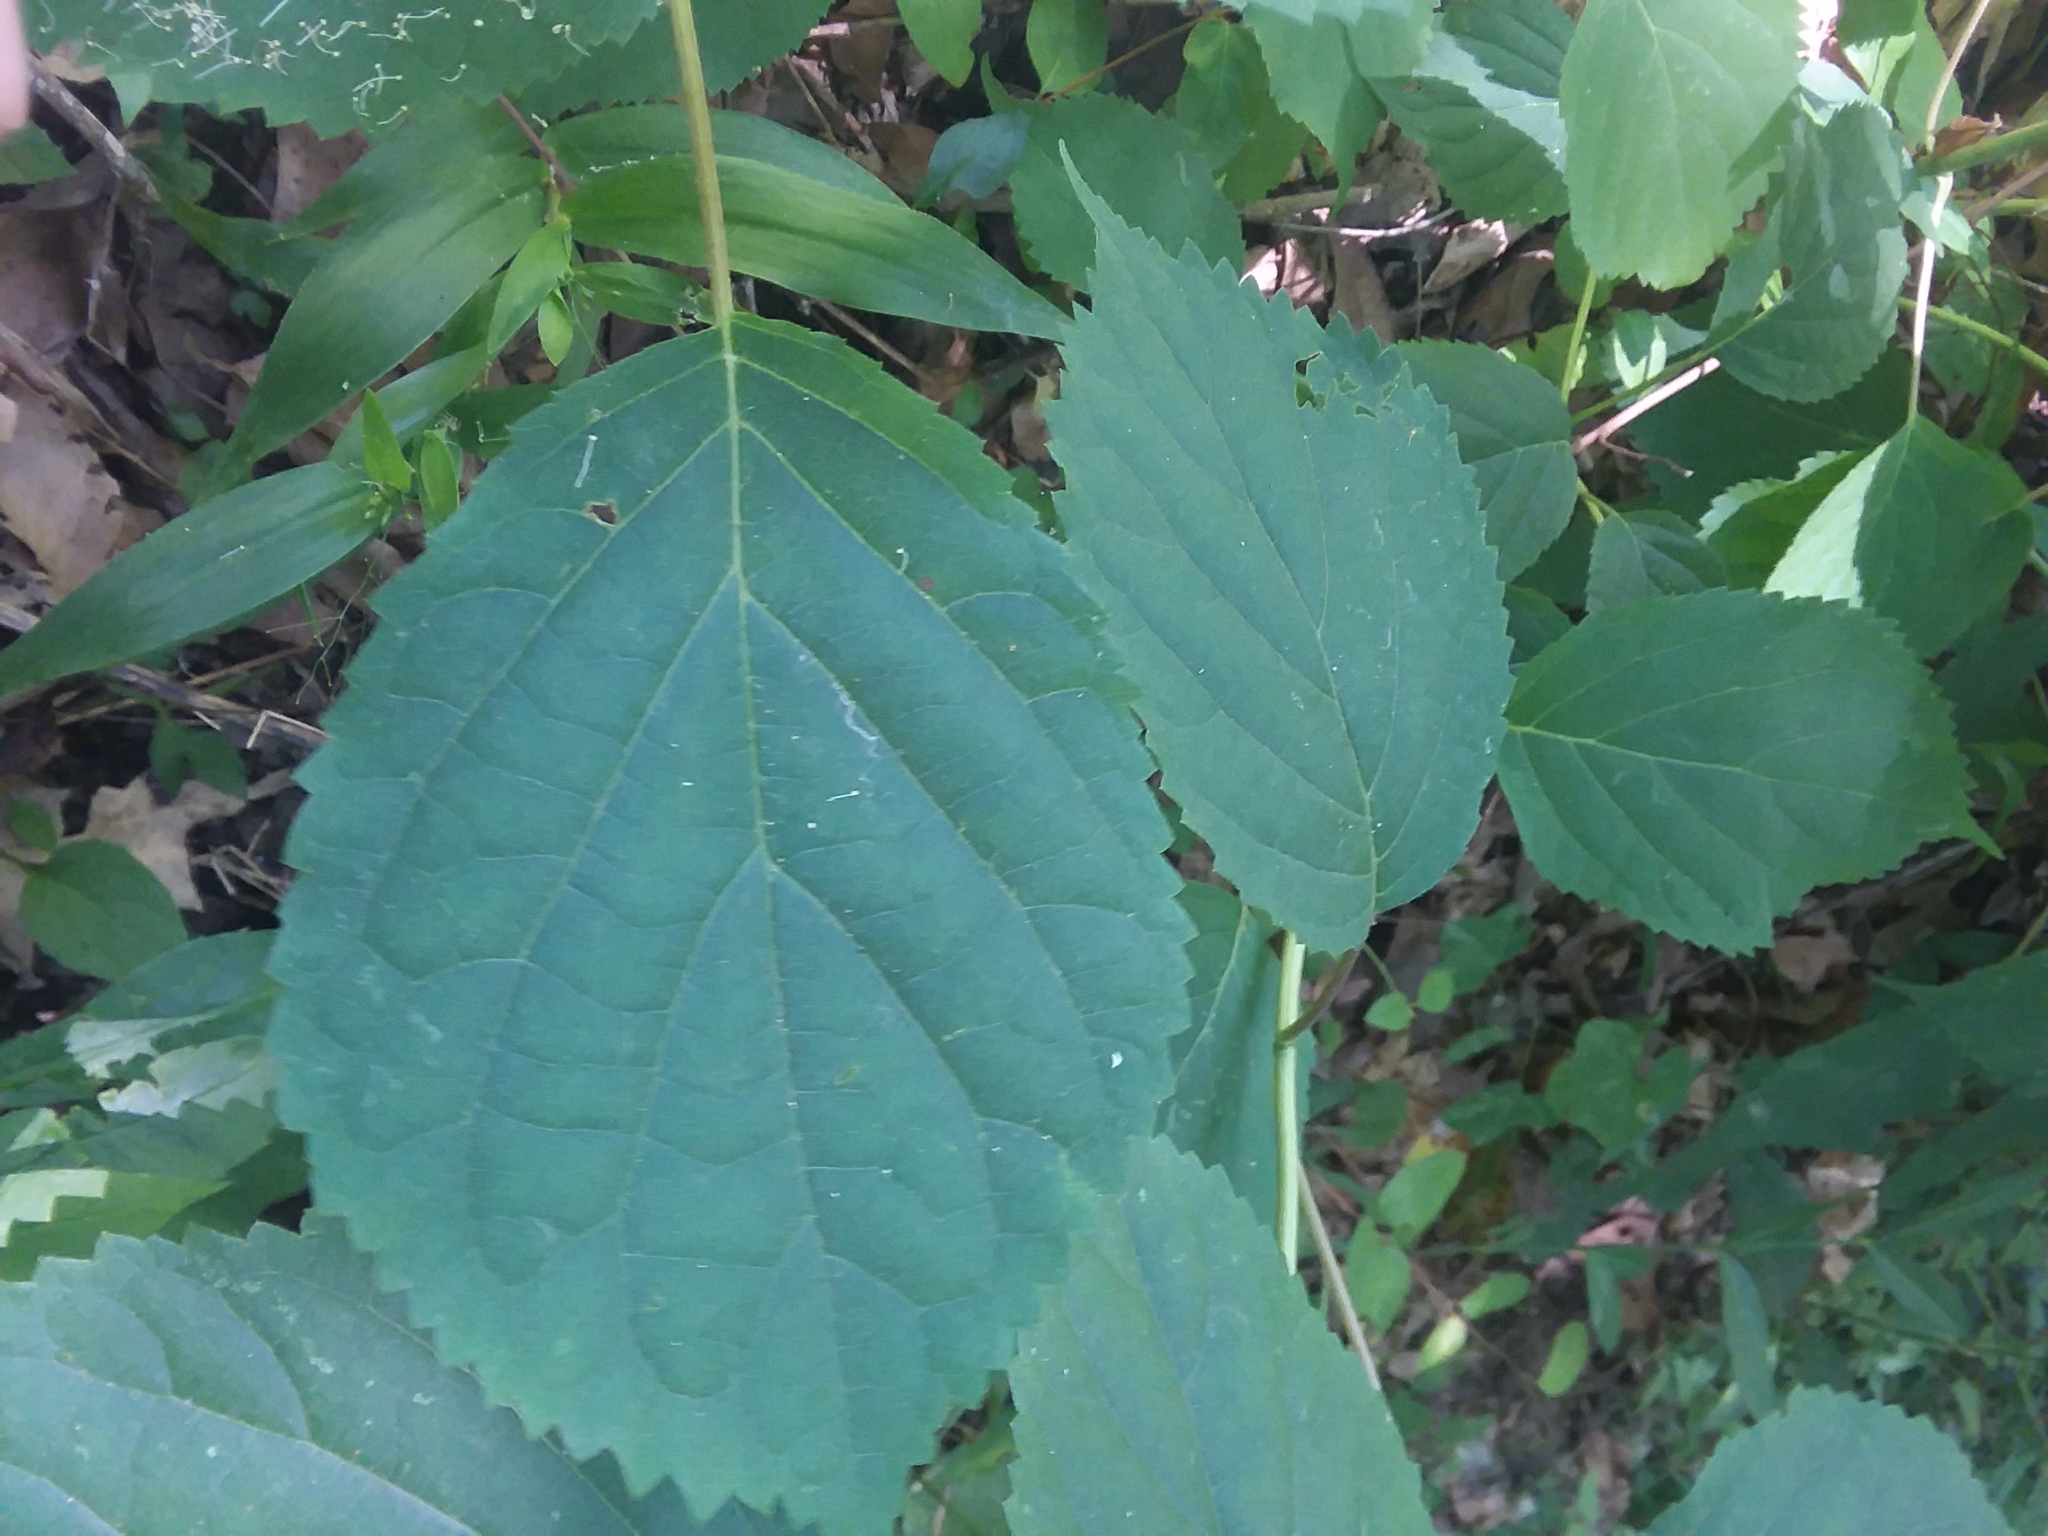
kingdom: Plantae
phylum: Tracheophyta
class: Magnoliopsida
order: Cornales
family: Hydrangeaceae
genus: Hydrangea
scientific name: Hydrangea arborescens
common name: Sevenbark
